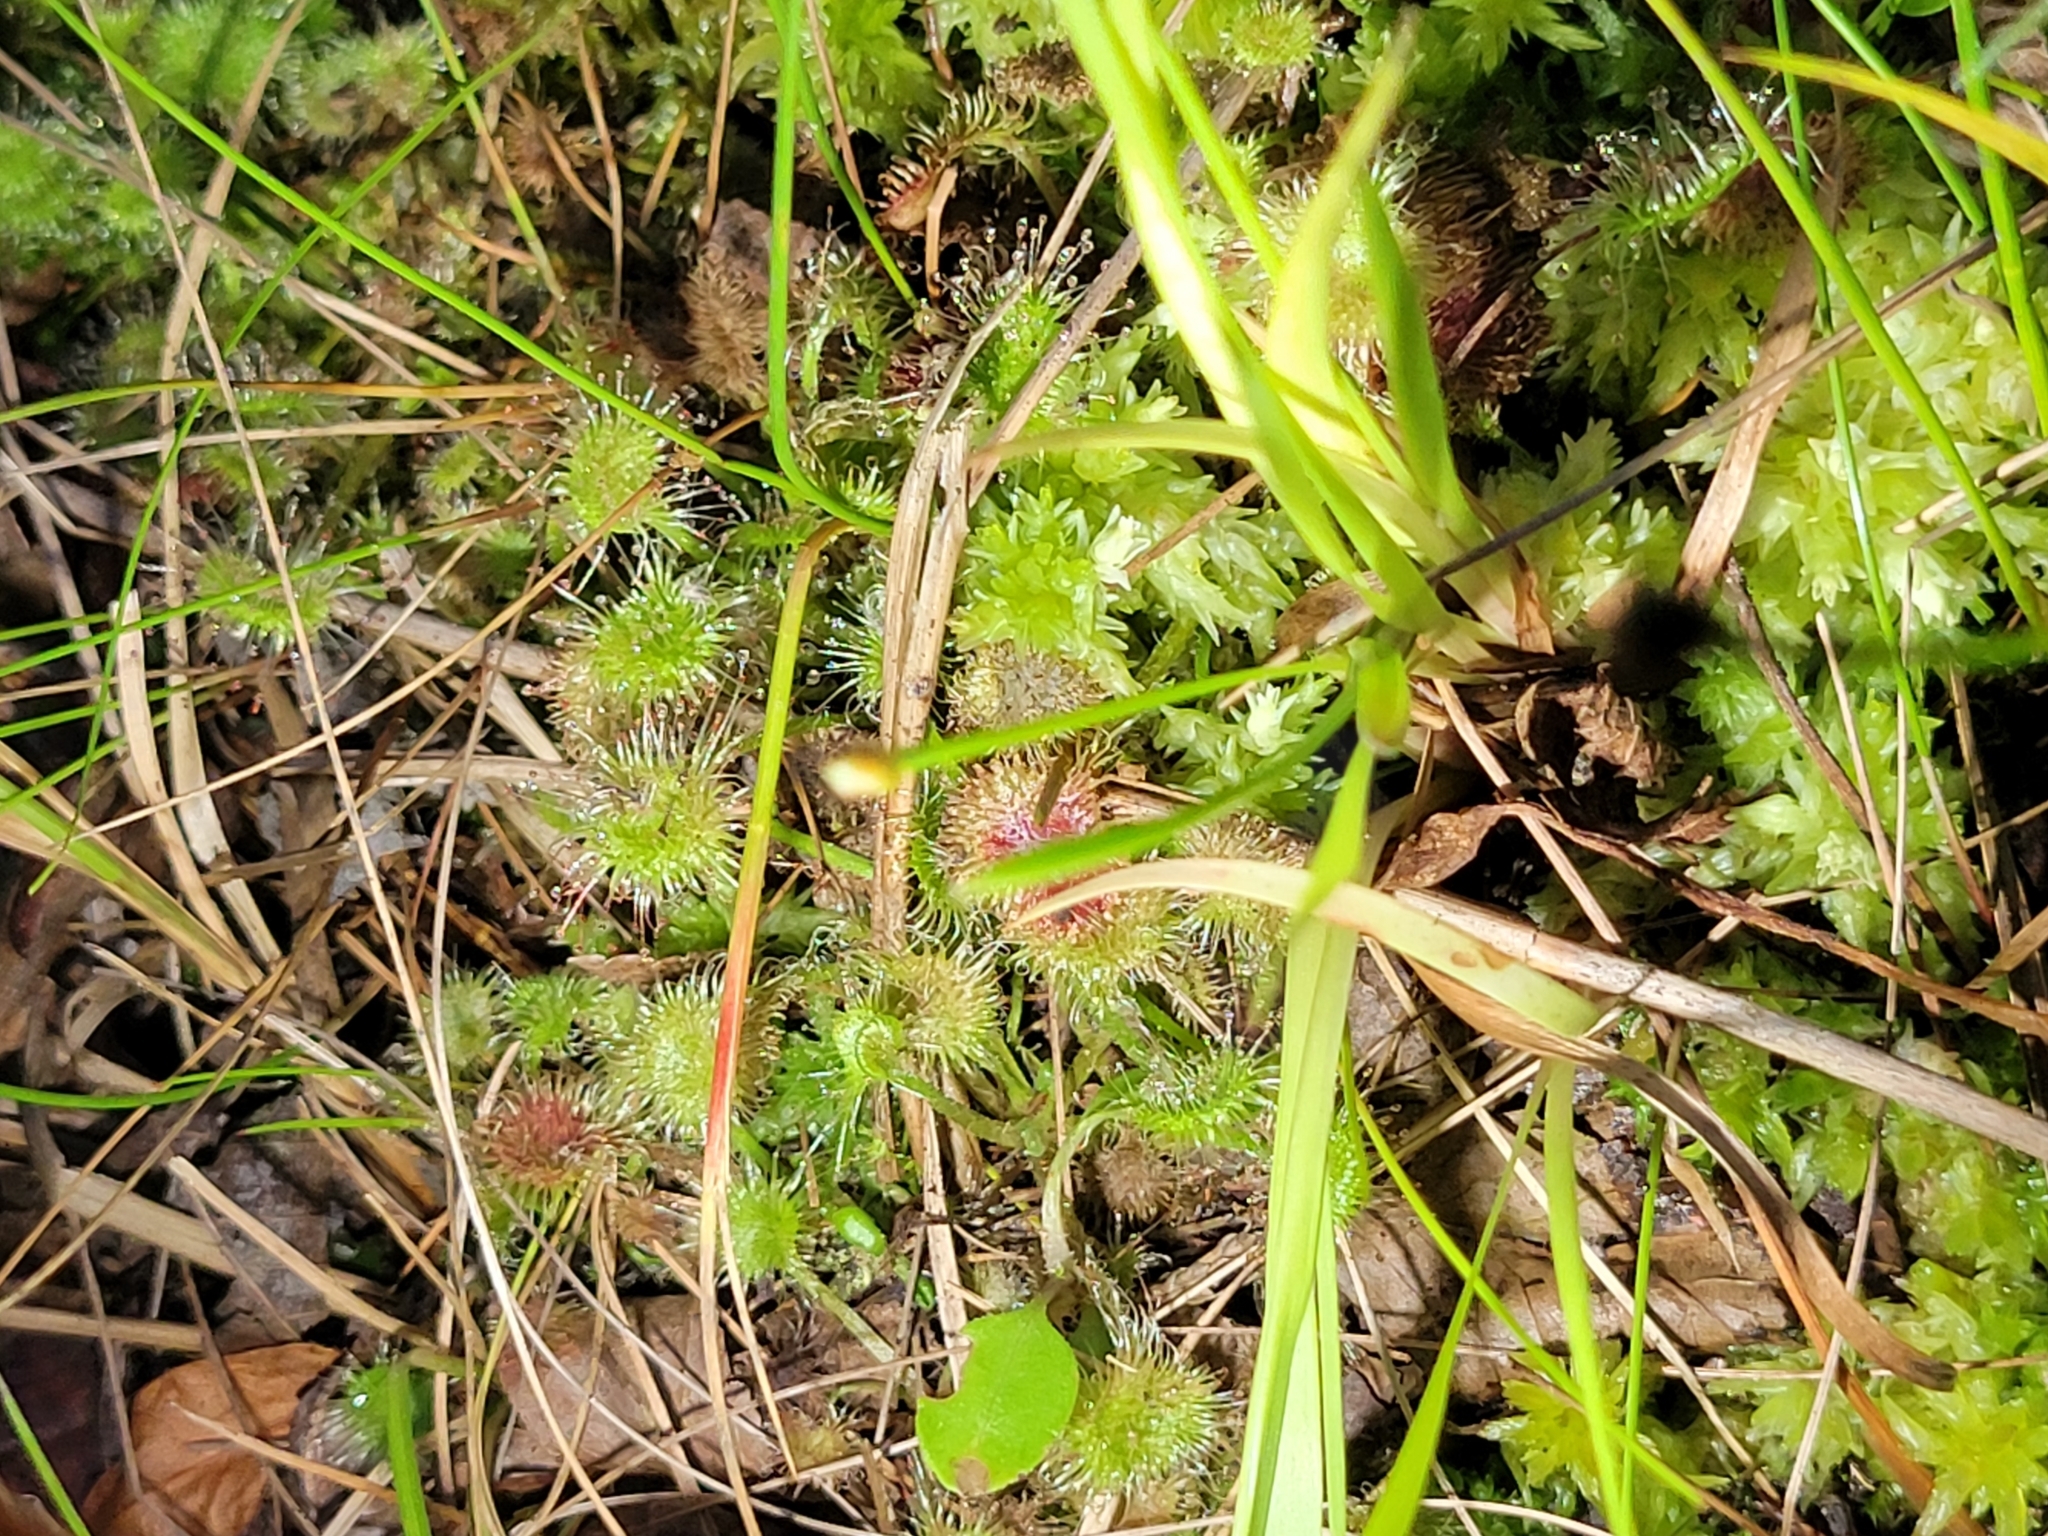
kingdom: Plantae
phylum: Tracheophyta
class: Magnoliopsida
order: Caryophyllales
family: Droseraceae
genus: Drosera
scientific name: Drosera rotundifolia
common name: Round-leaved sundew
